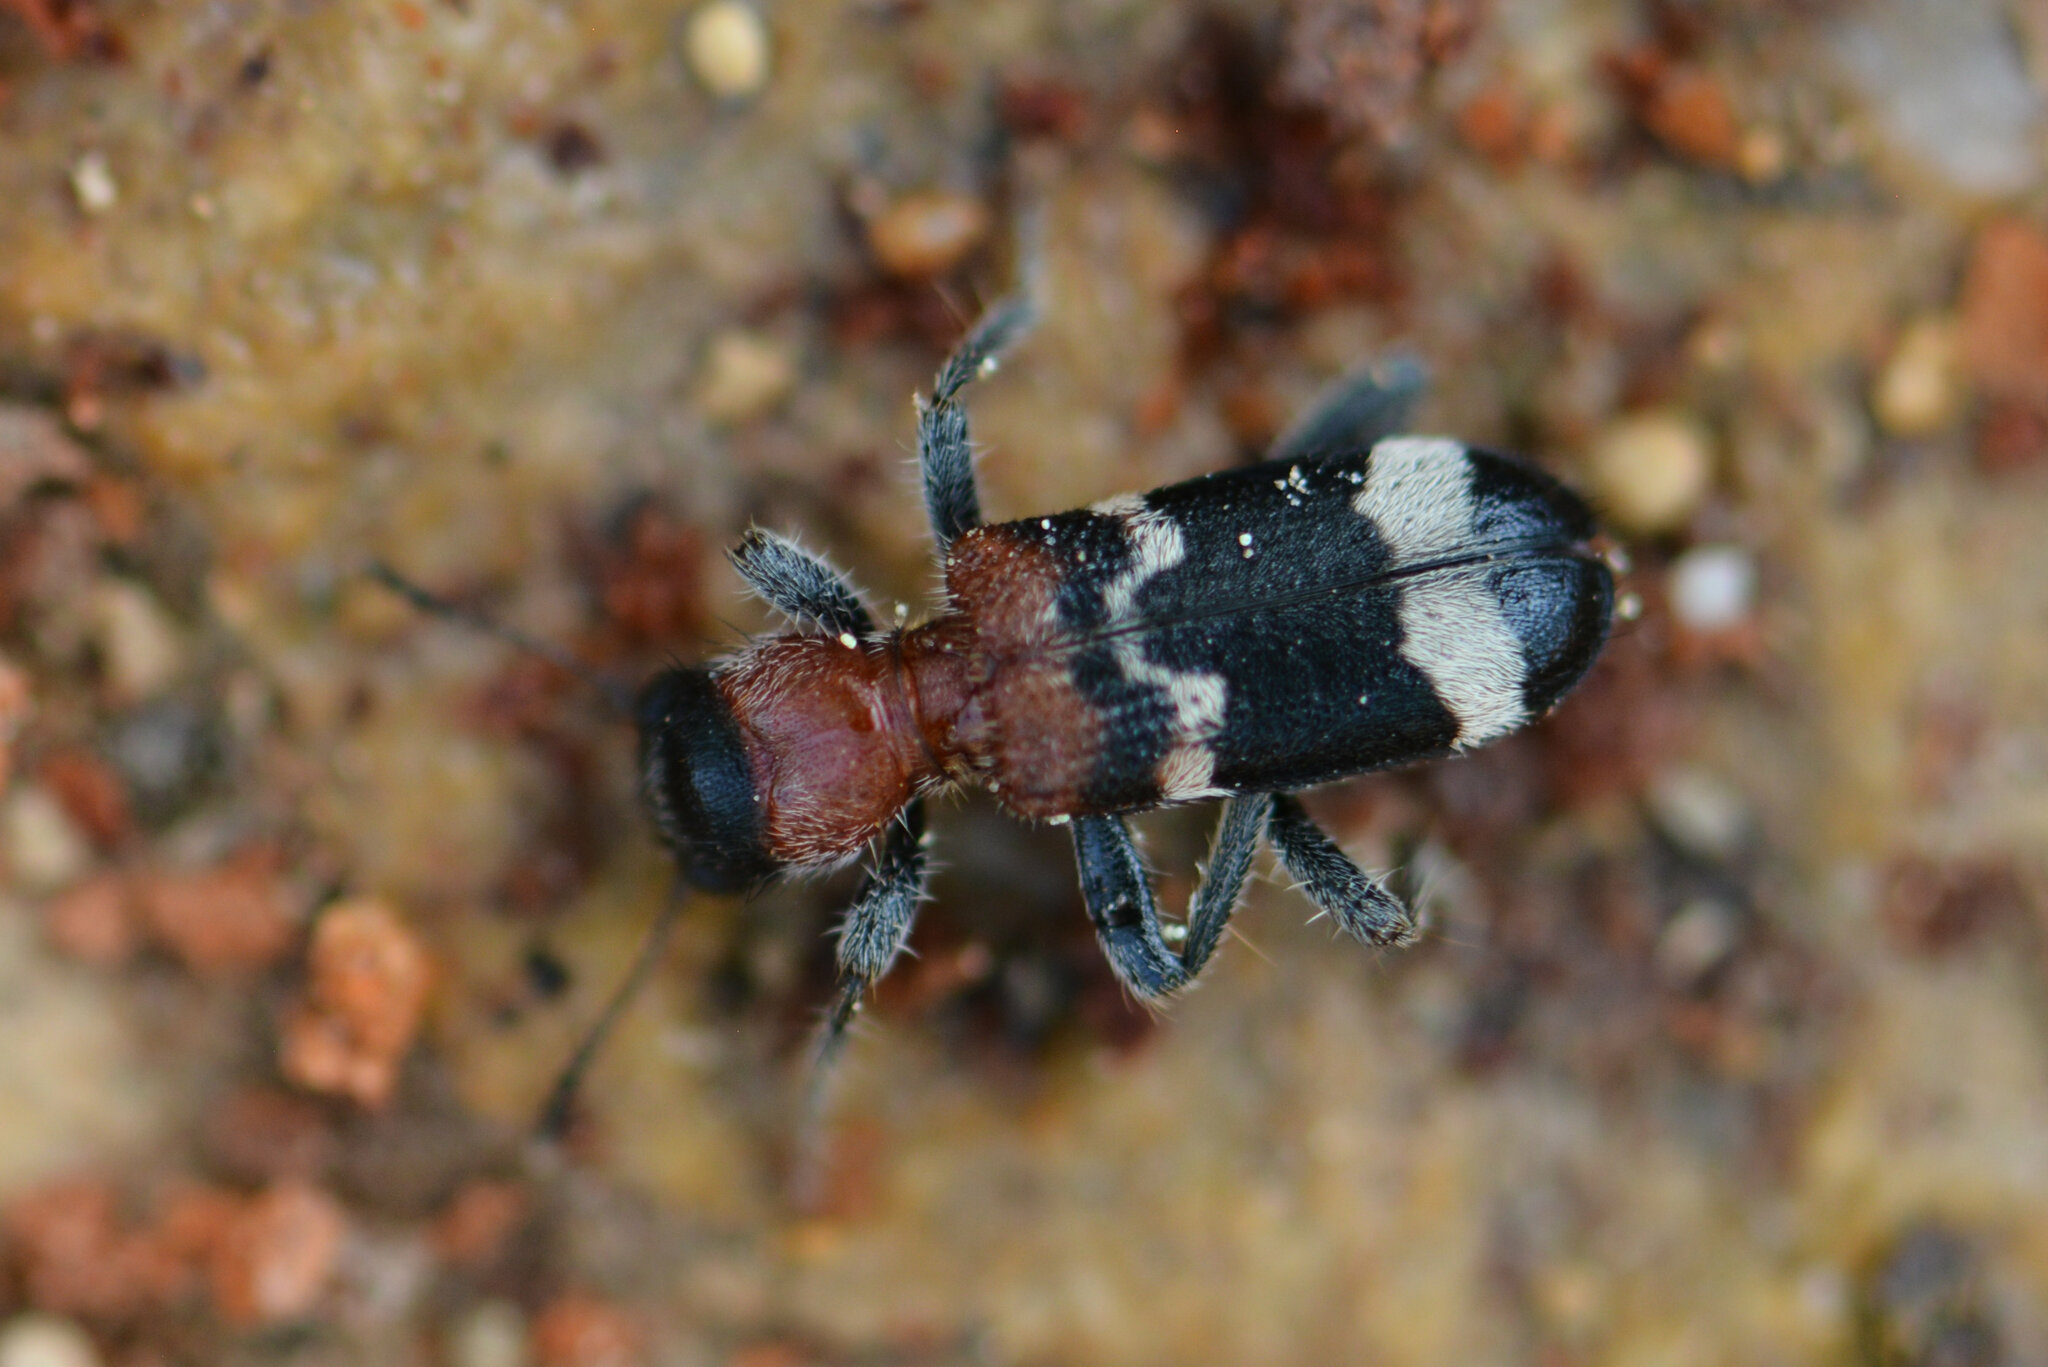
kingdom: Animalia
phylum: Arthropoda
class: Insecta
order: Coleoptera
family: Cleridae
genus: Thanasimus
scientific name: Thanasimus formicarius
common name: Ant beetle
